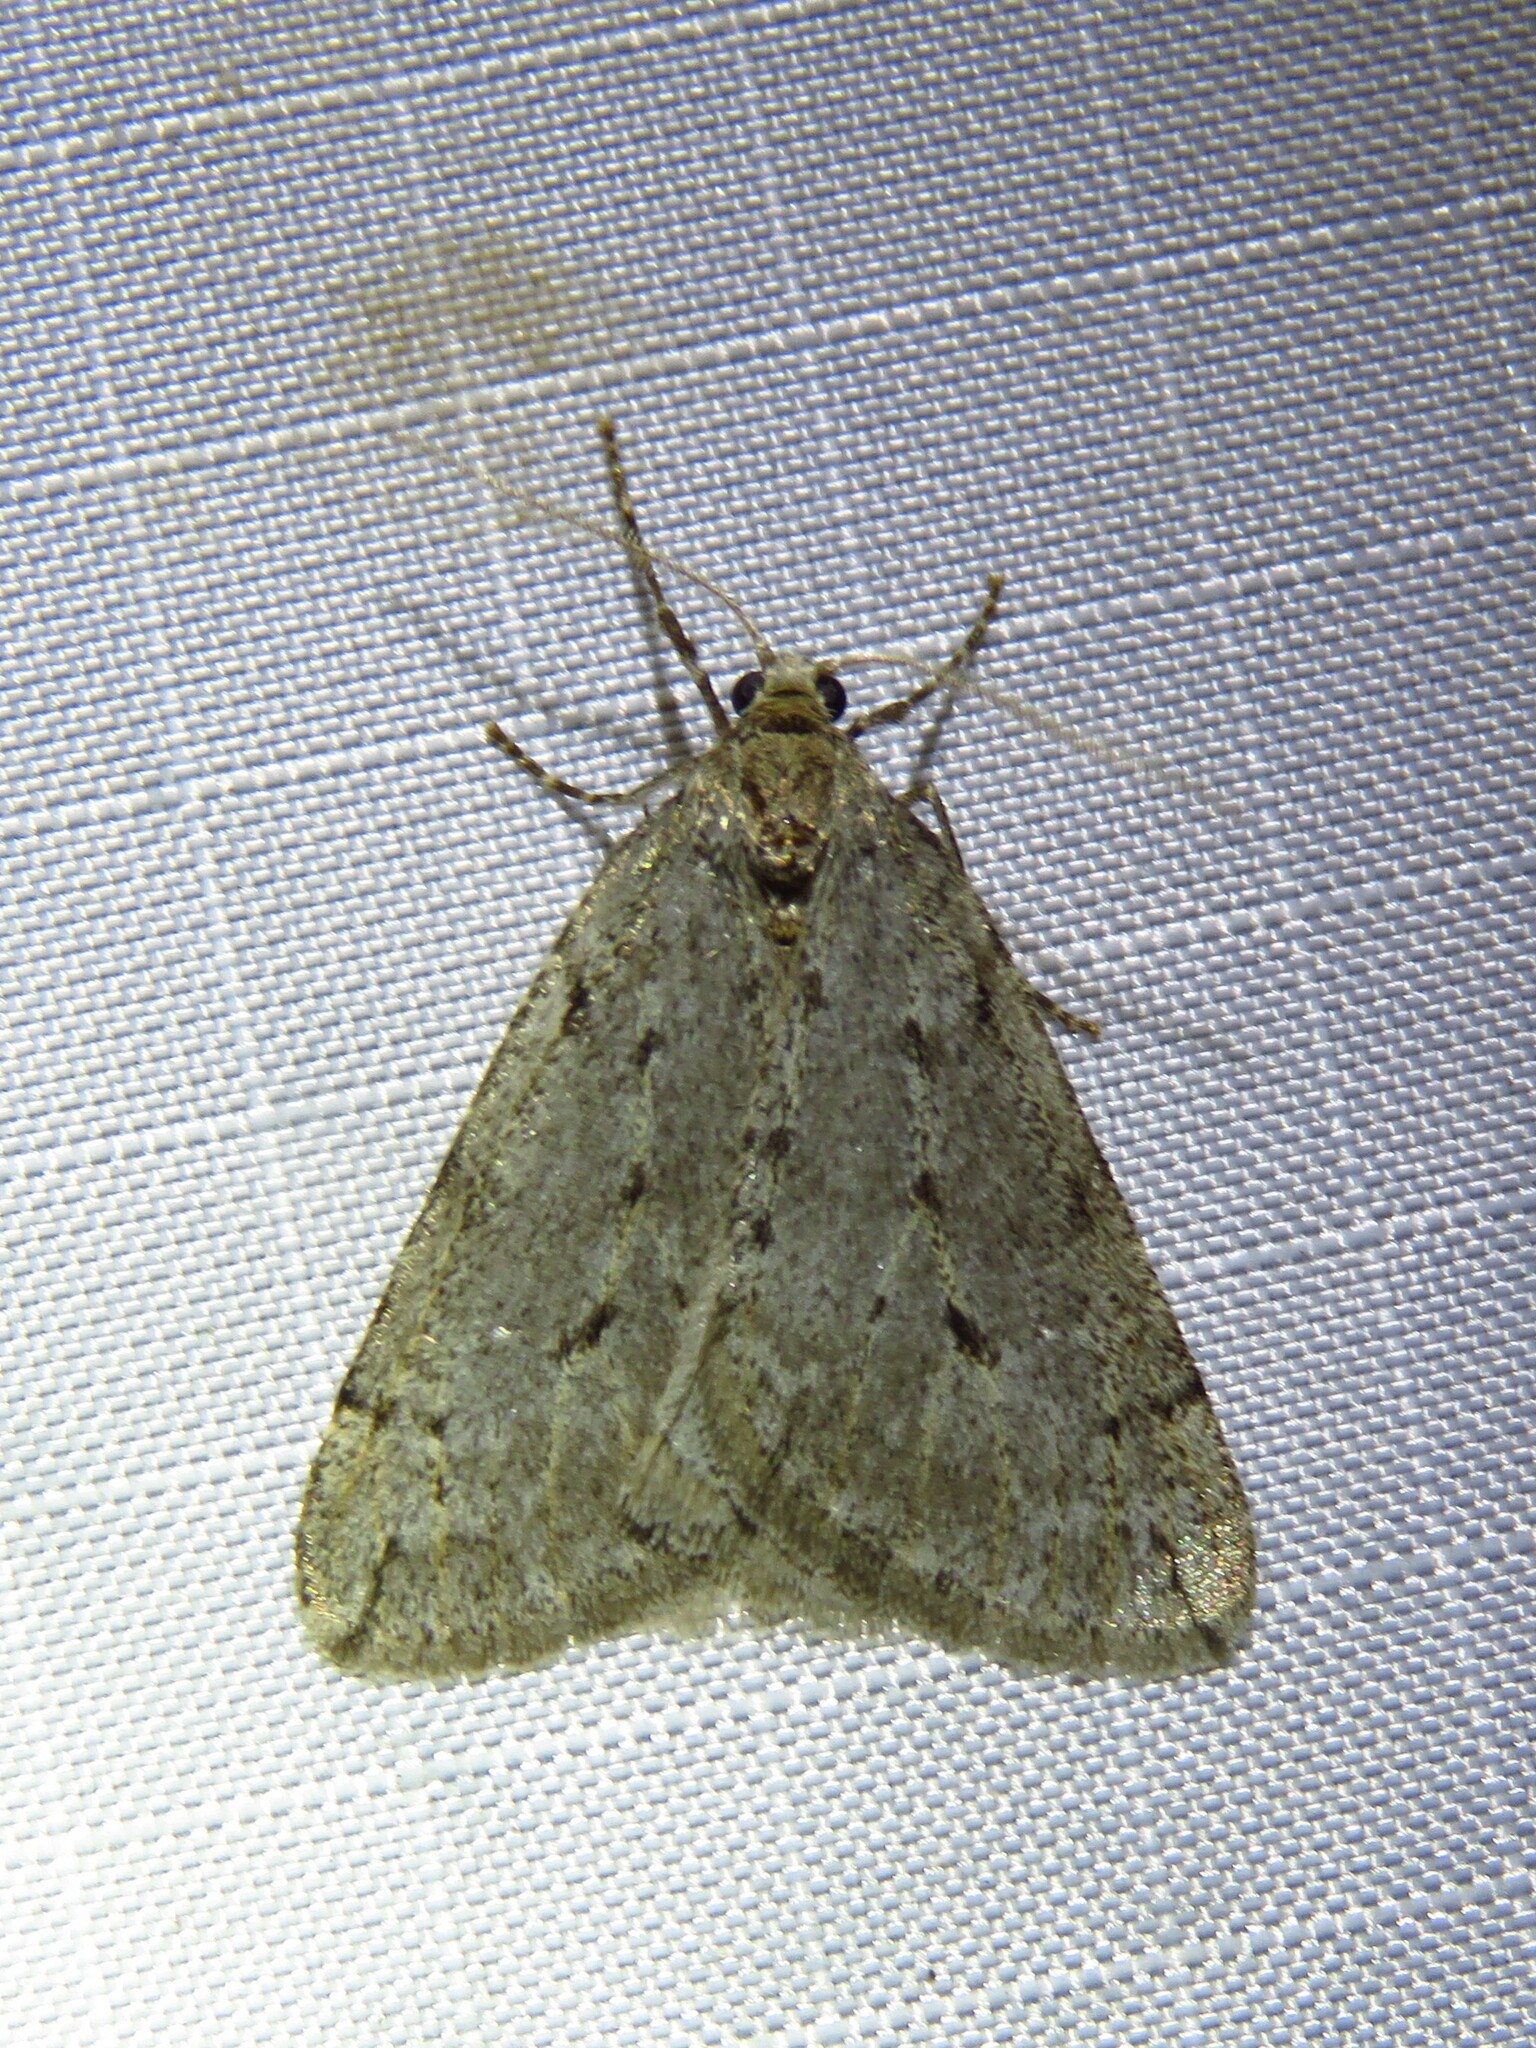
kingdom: Animalia
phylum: Arthropoda
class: Insecta
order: Lepidoptera
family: Geometridae
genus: Paleacrita
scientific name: Paleacrita vernata
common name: Spring cankerworm
